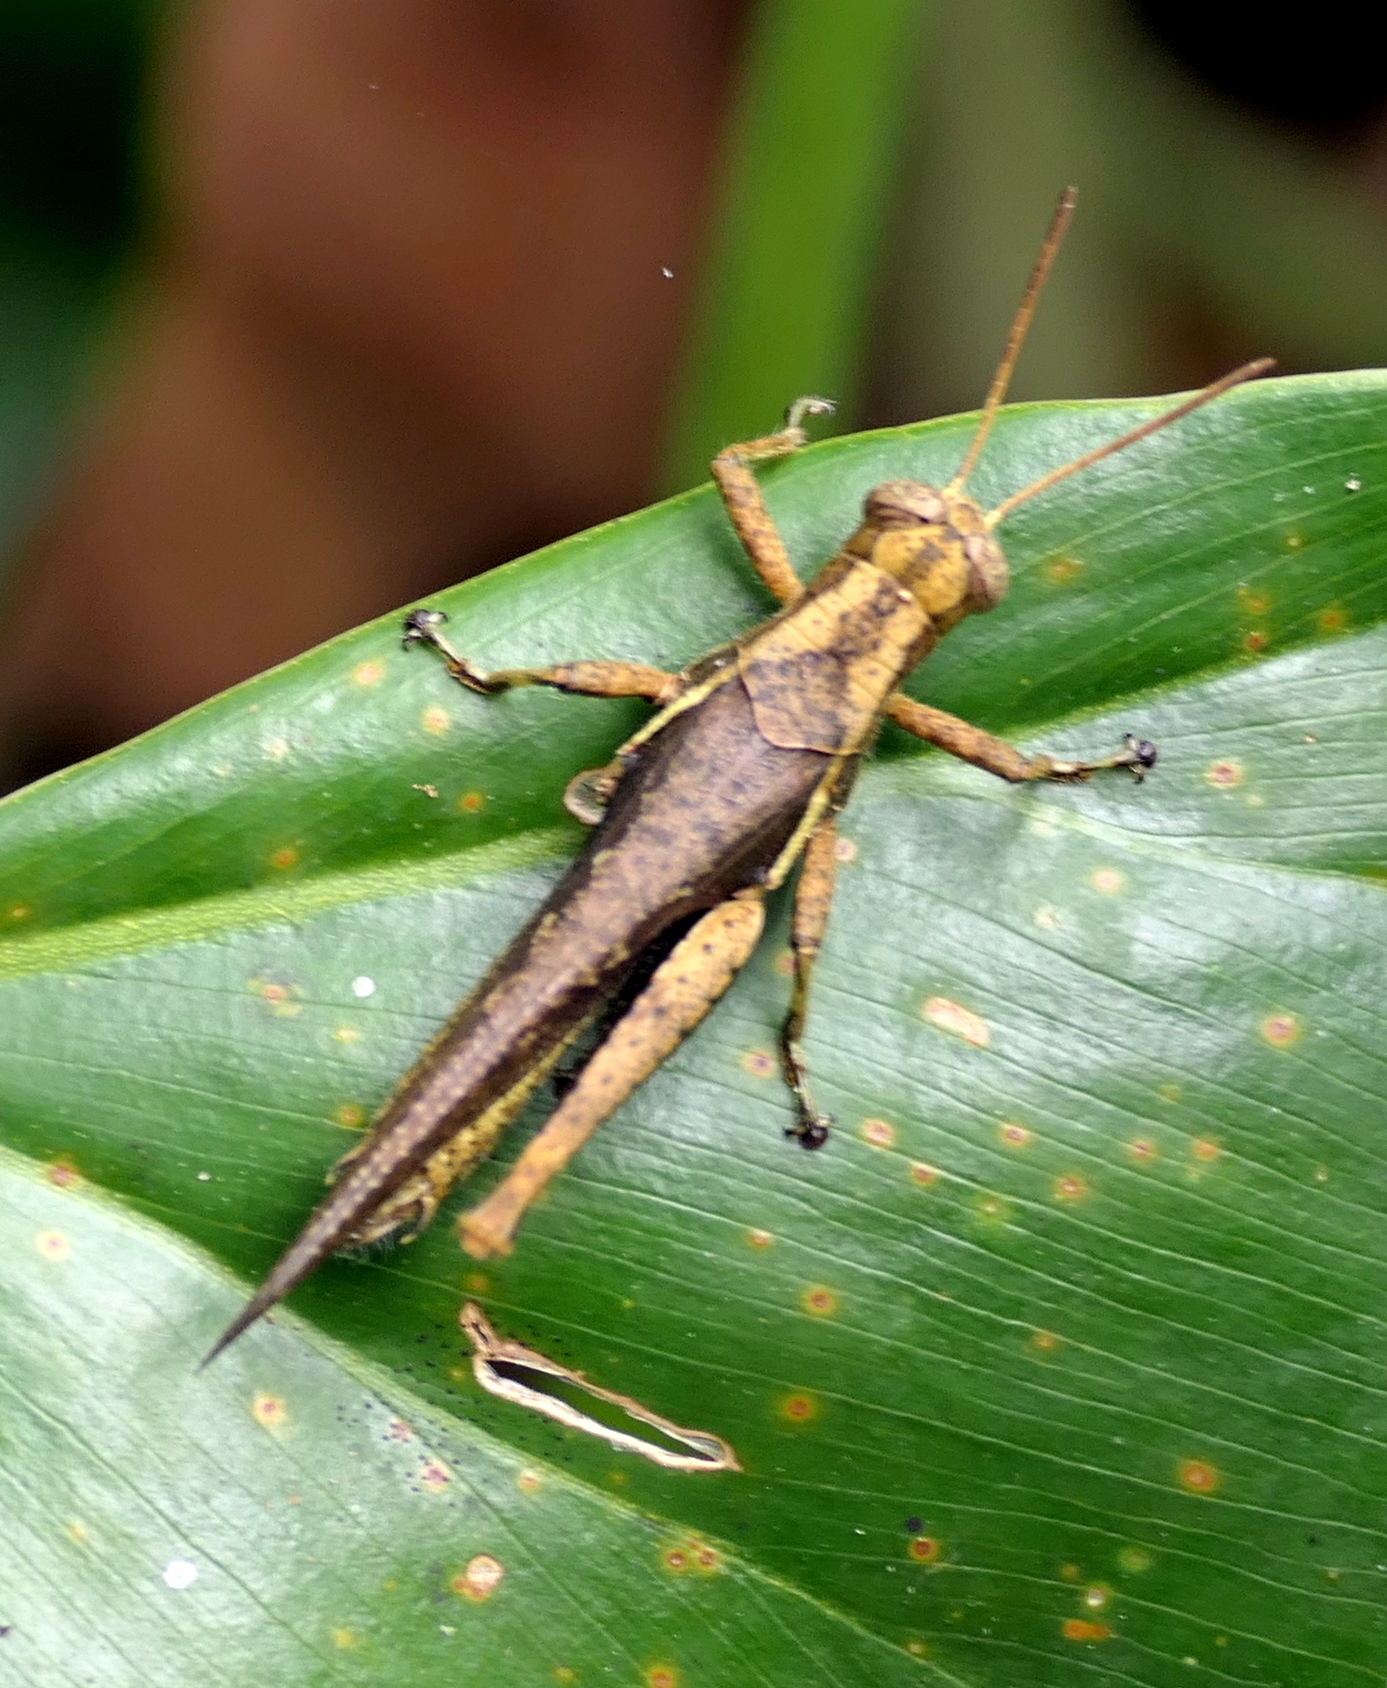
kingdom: Animalia
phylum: Arthropoda
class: Insecta
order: Orthoptera
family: Acrididae
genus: Abracris
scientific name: Abracris flavolineata
